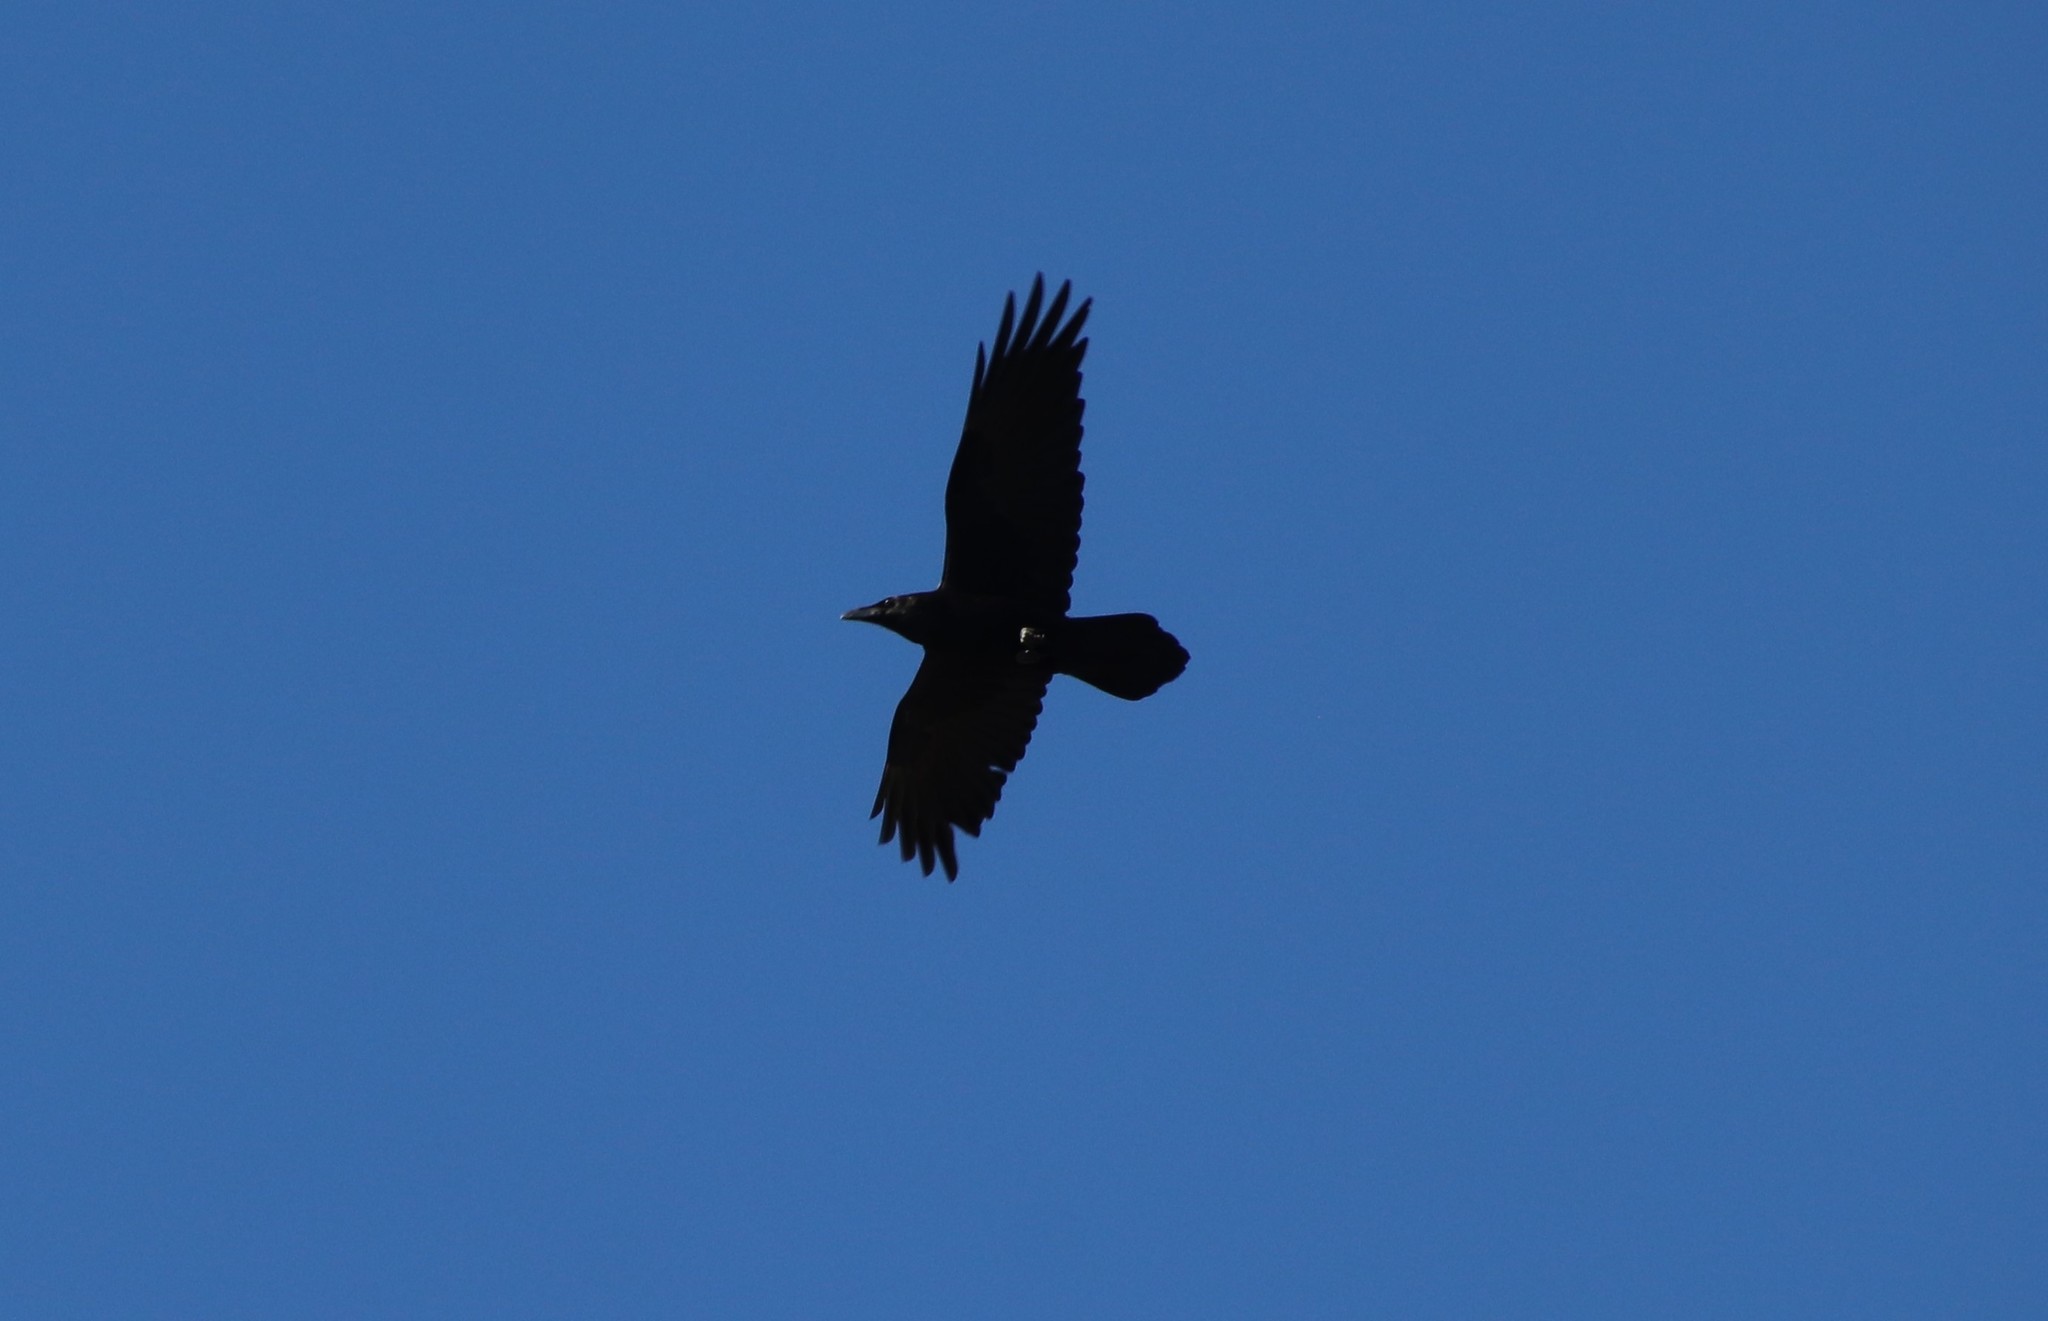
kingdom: Animalia
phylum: Chordata
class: Aves
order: Passeriformes
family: Corvidae
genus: Corvus
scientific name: Corvus corax
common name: Common raven
